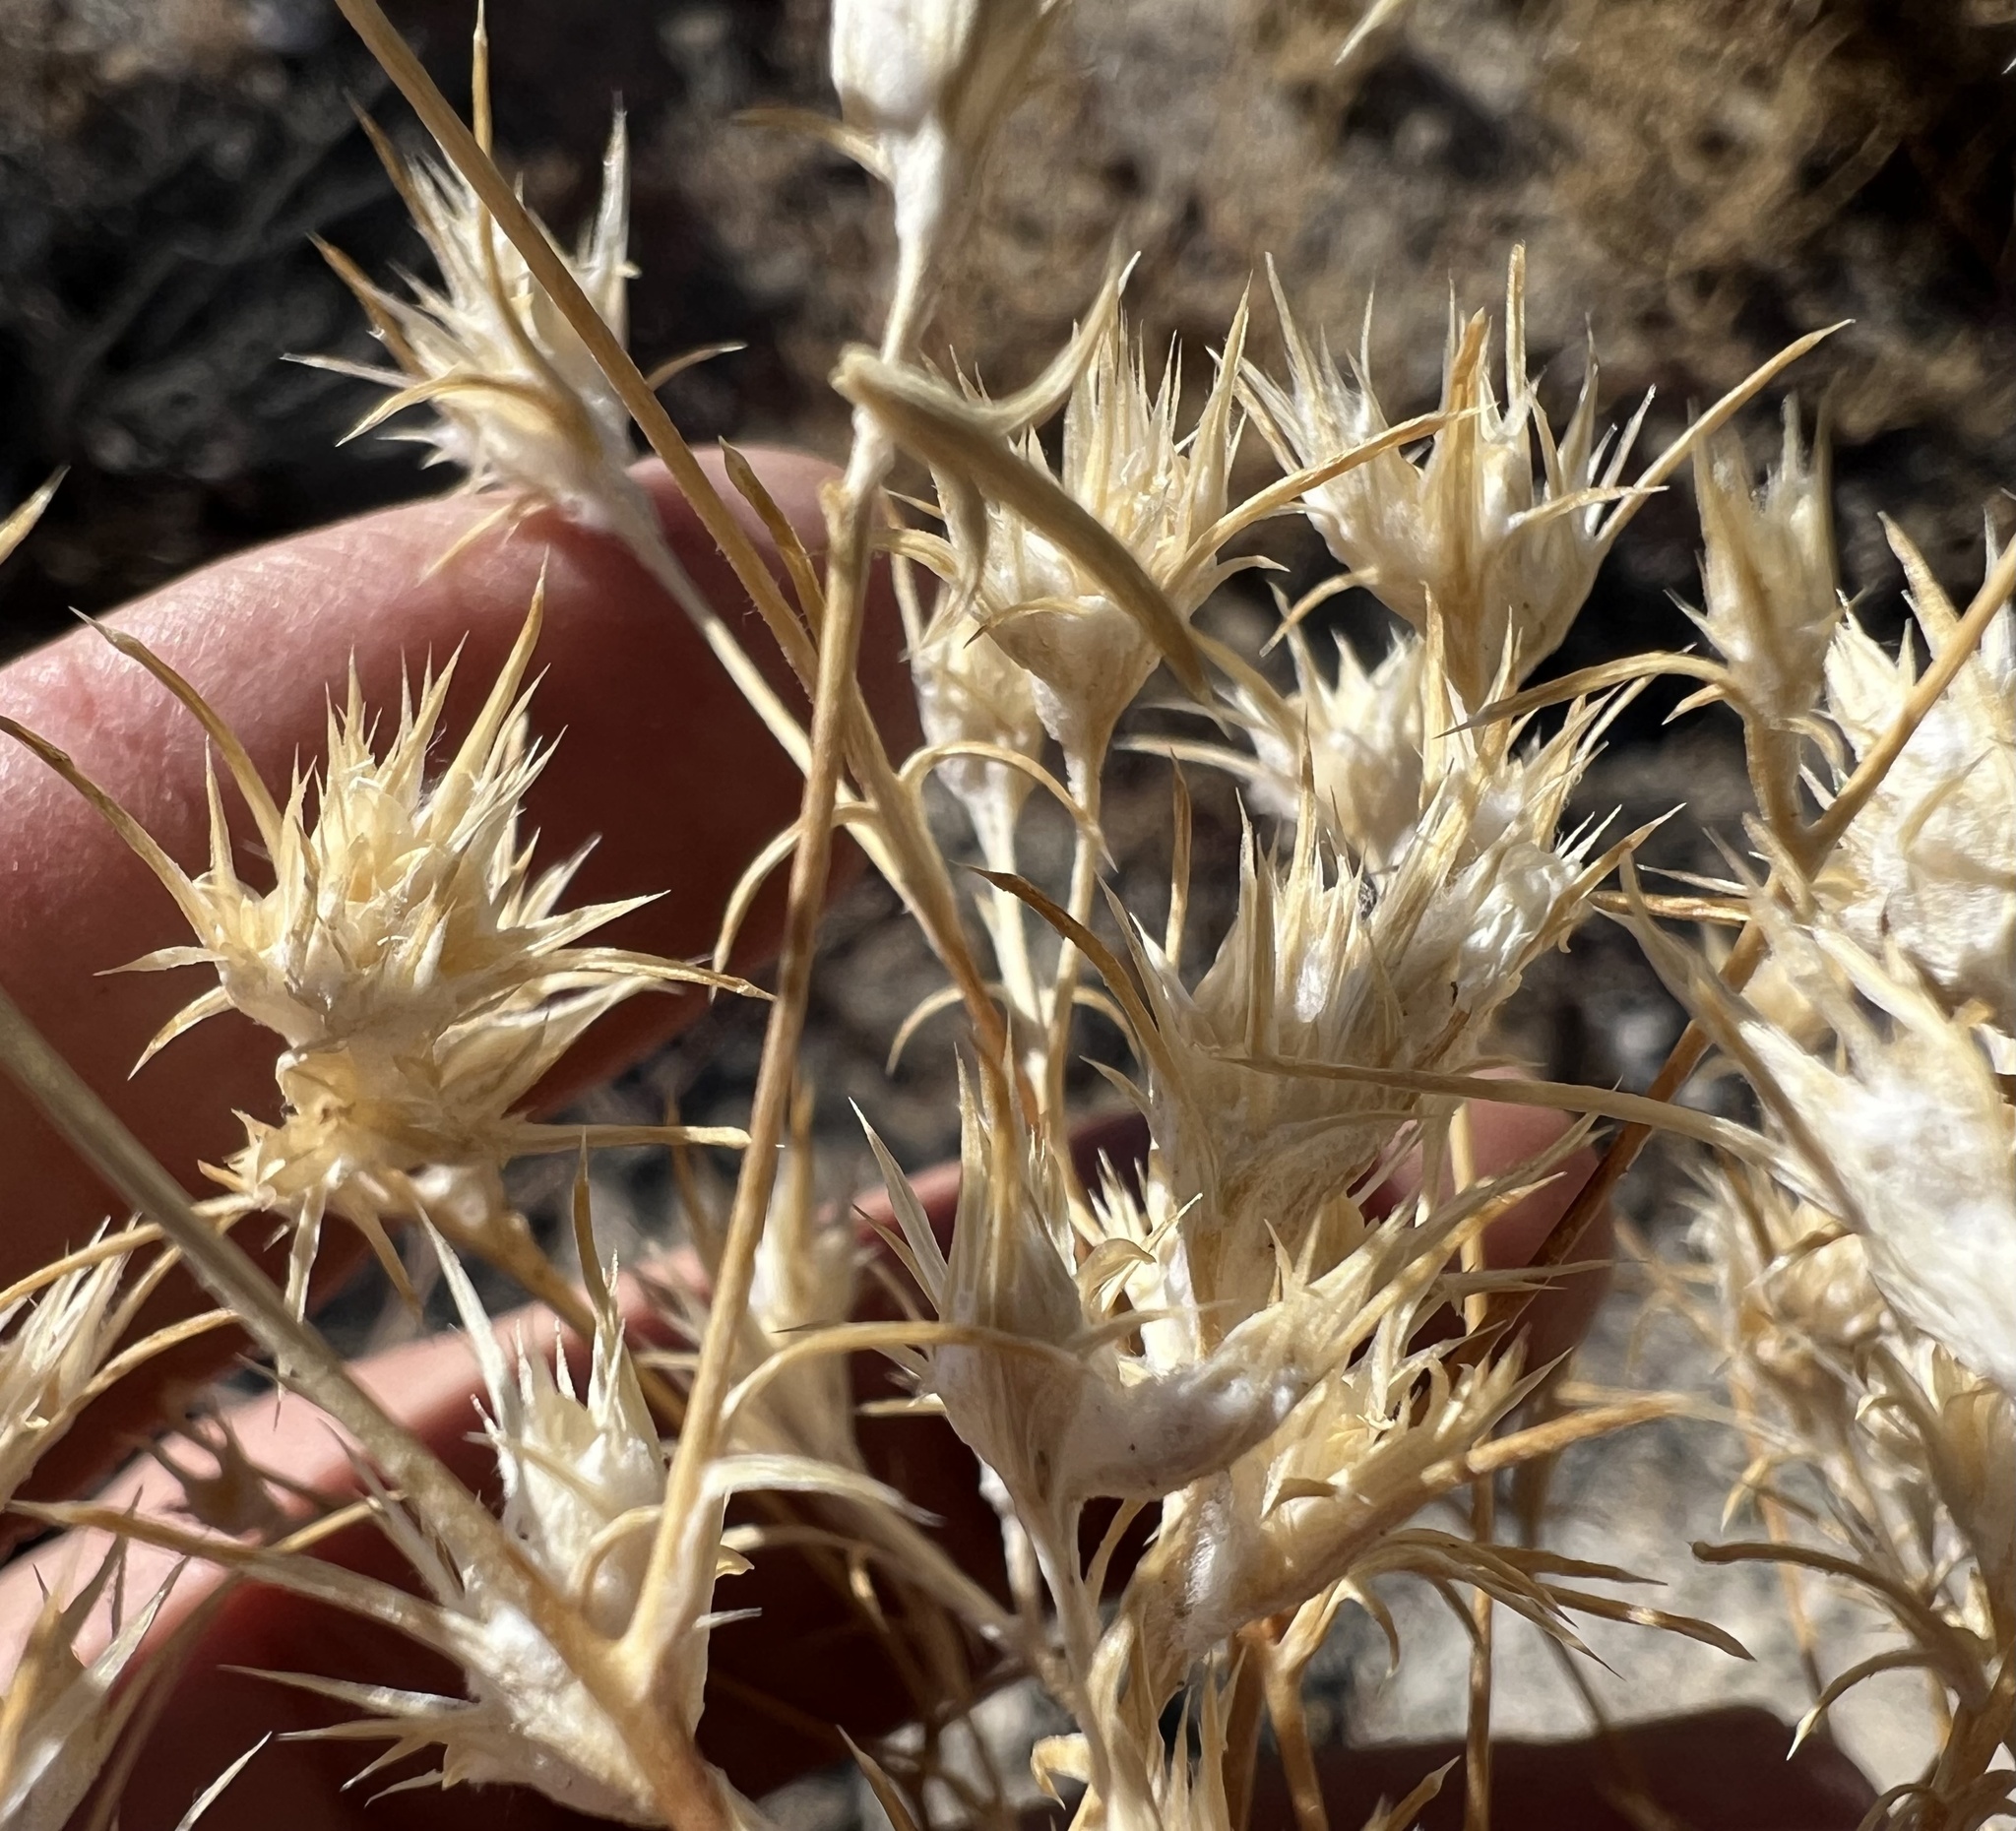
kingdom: Plantae
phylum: Tracheophyta
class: Magnoliopsida
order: Ericales
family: Polemoniaceae
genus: Eriastrum
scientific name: Eriastrum wilcoxii
